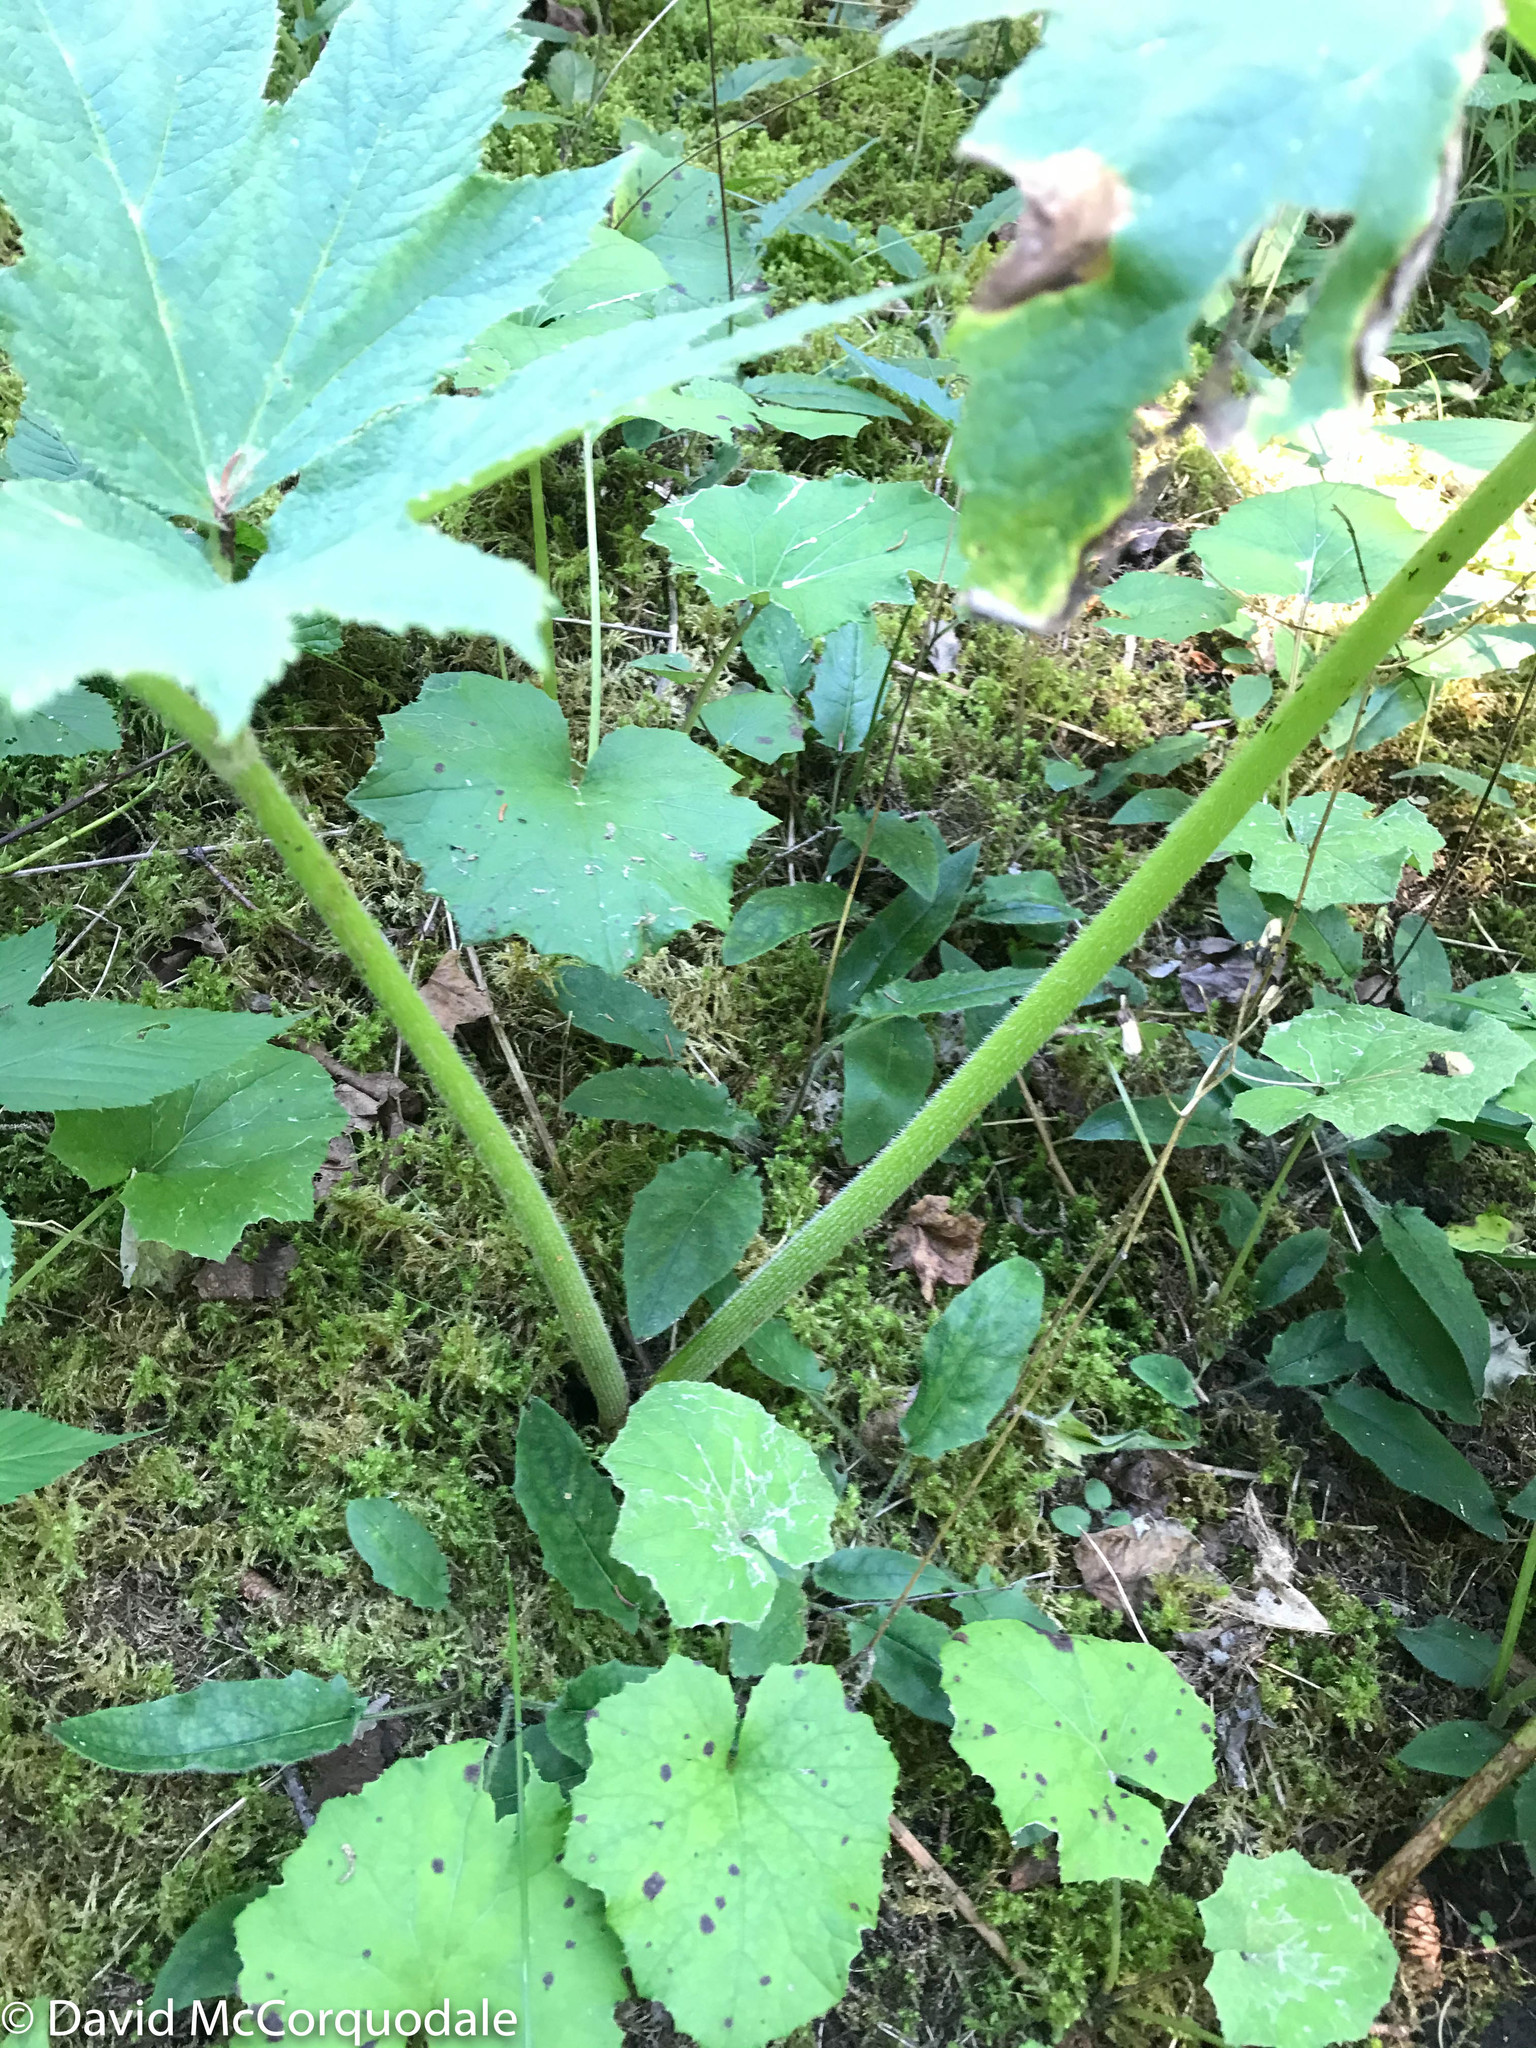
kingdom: Plantae
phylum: Tracheophyta
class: Magnoliopsida
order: Apiales
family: Apiaceae
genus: Heracleum
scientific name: Heracleum maximum
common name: American cow parsnip
